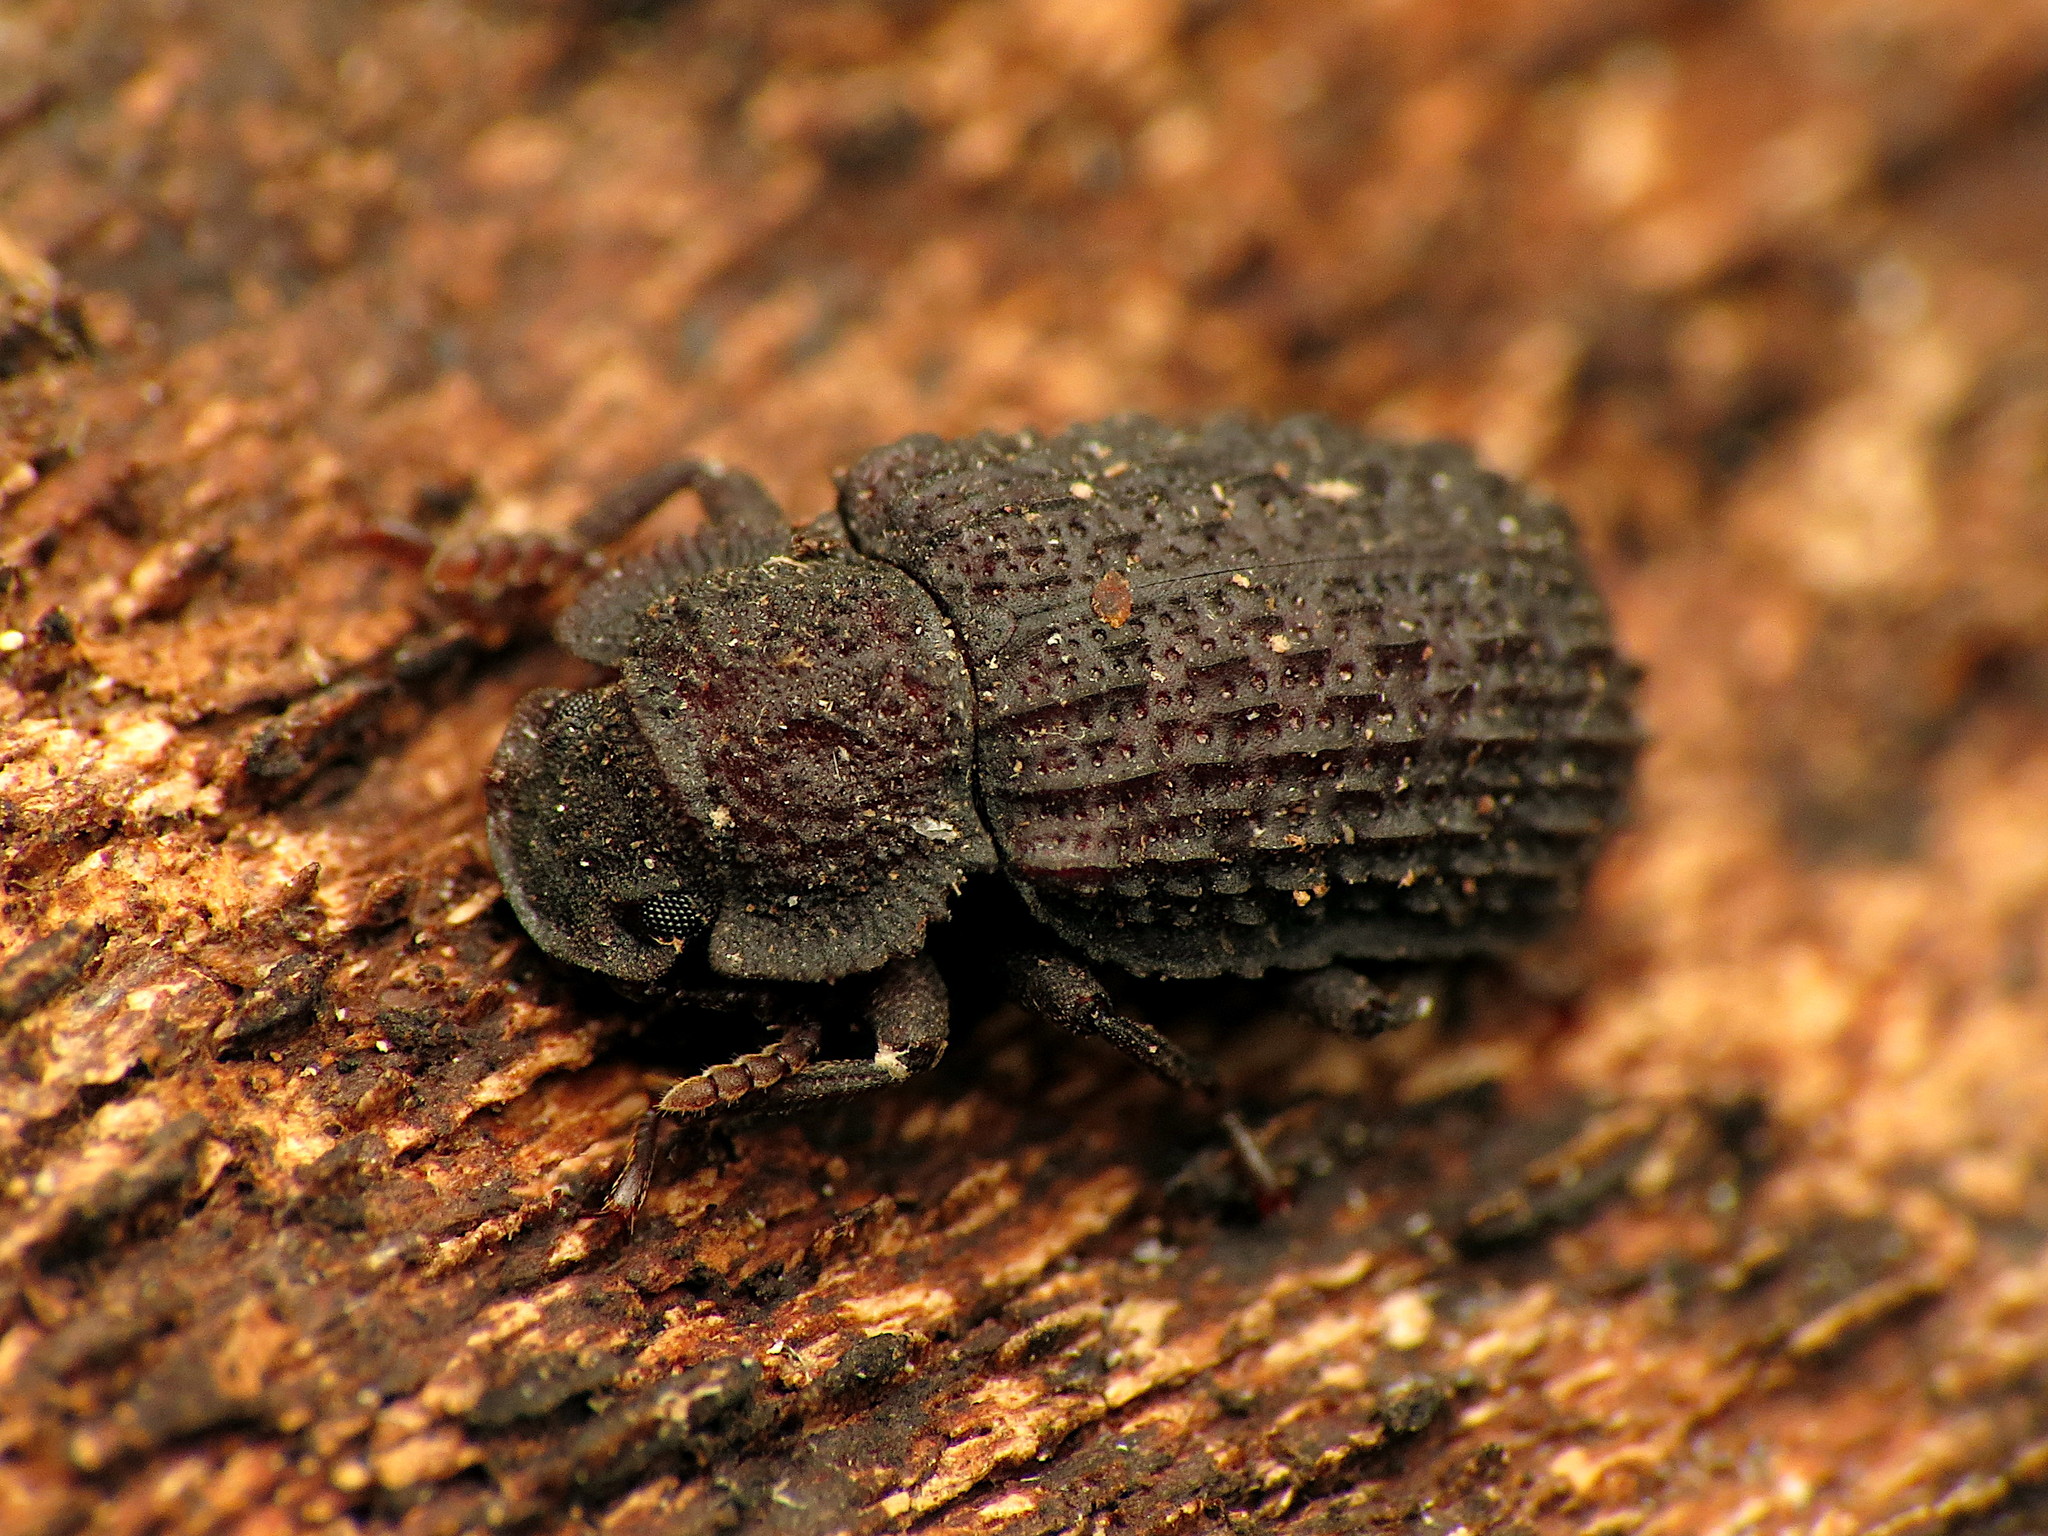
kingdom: Animalia
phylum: Arthropoda
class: Insecta
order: Coleoptera
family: Tenebrionidae
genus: Bolitophagus
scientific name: Bolitophagus corticola
